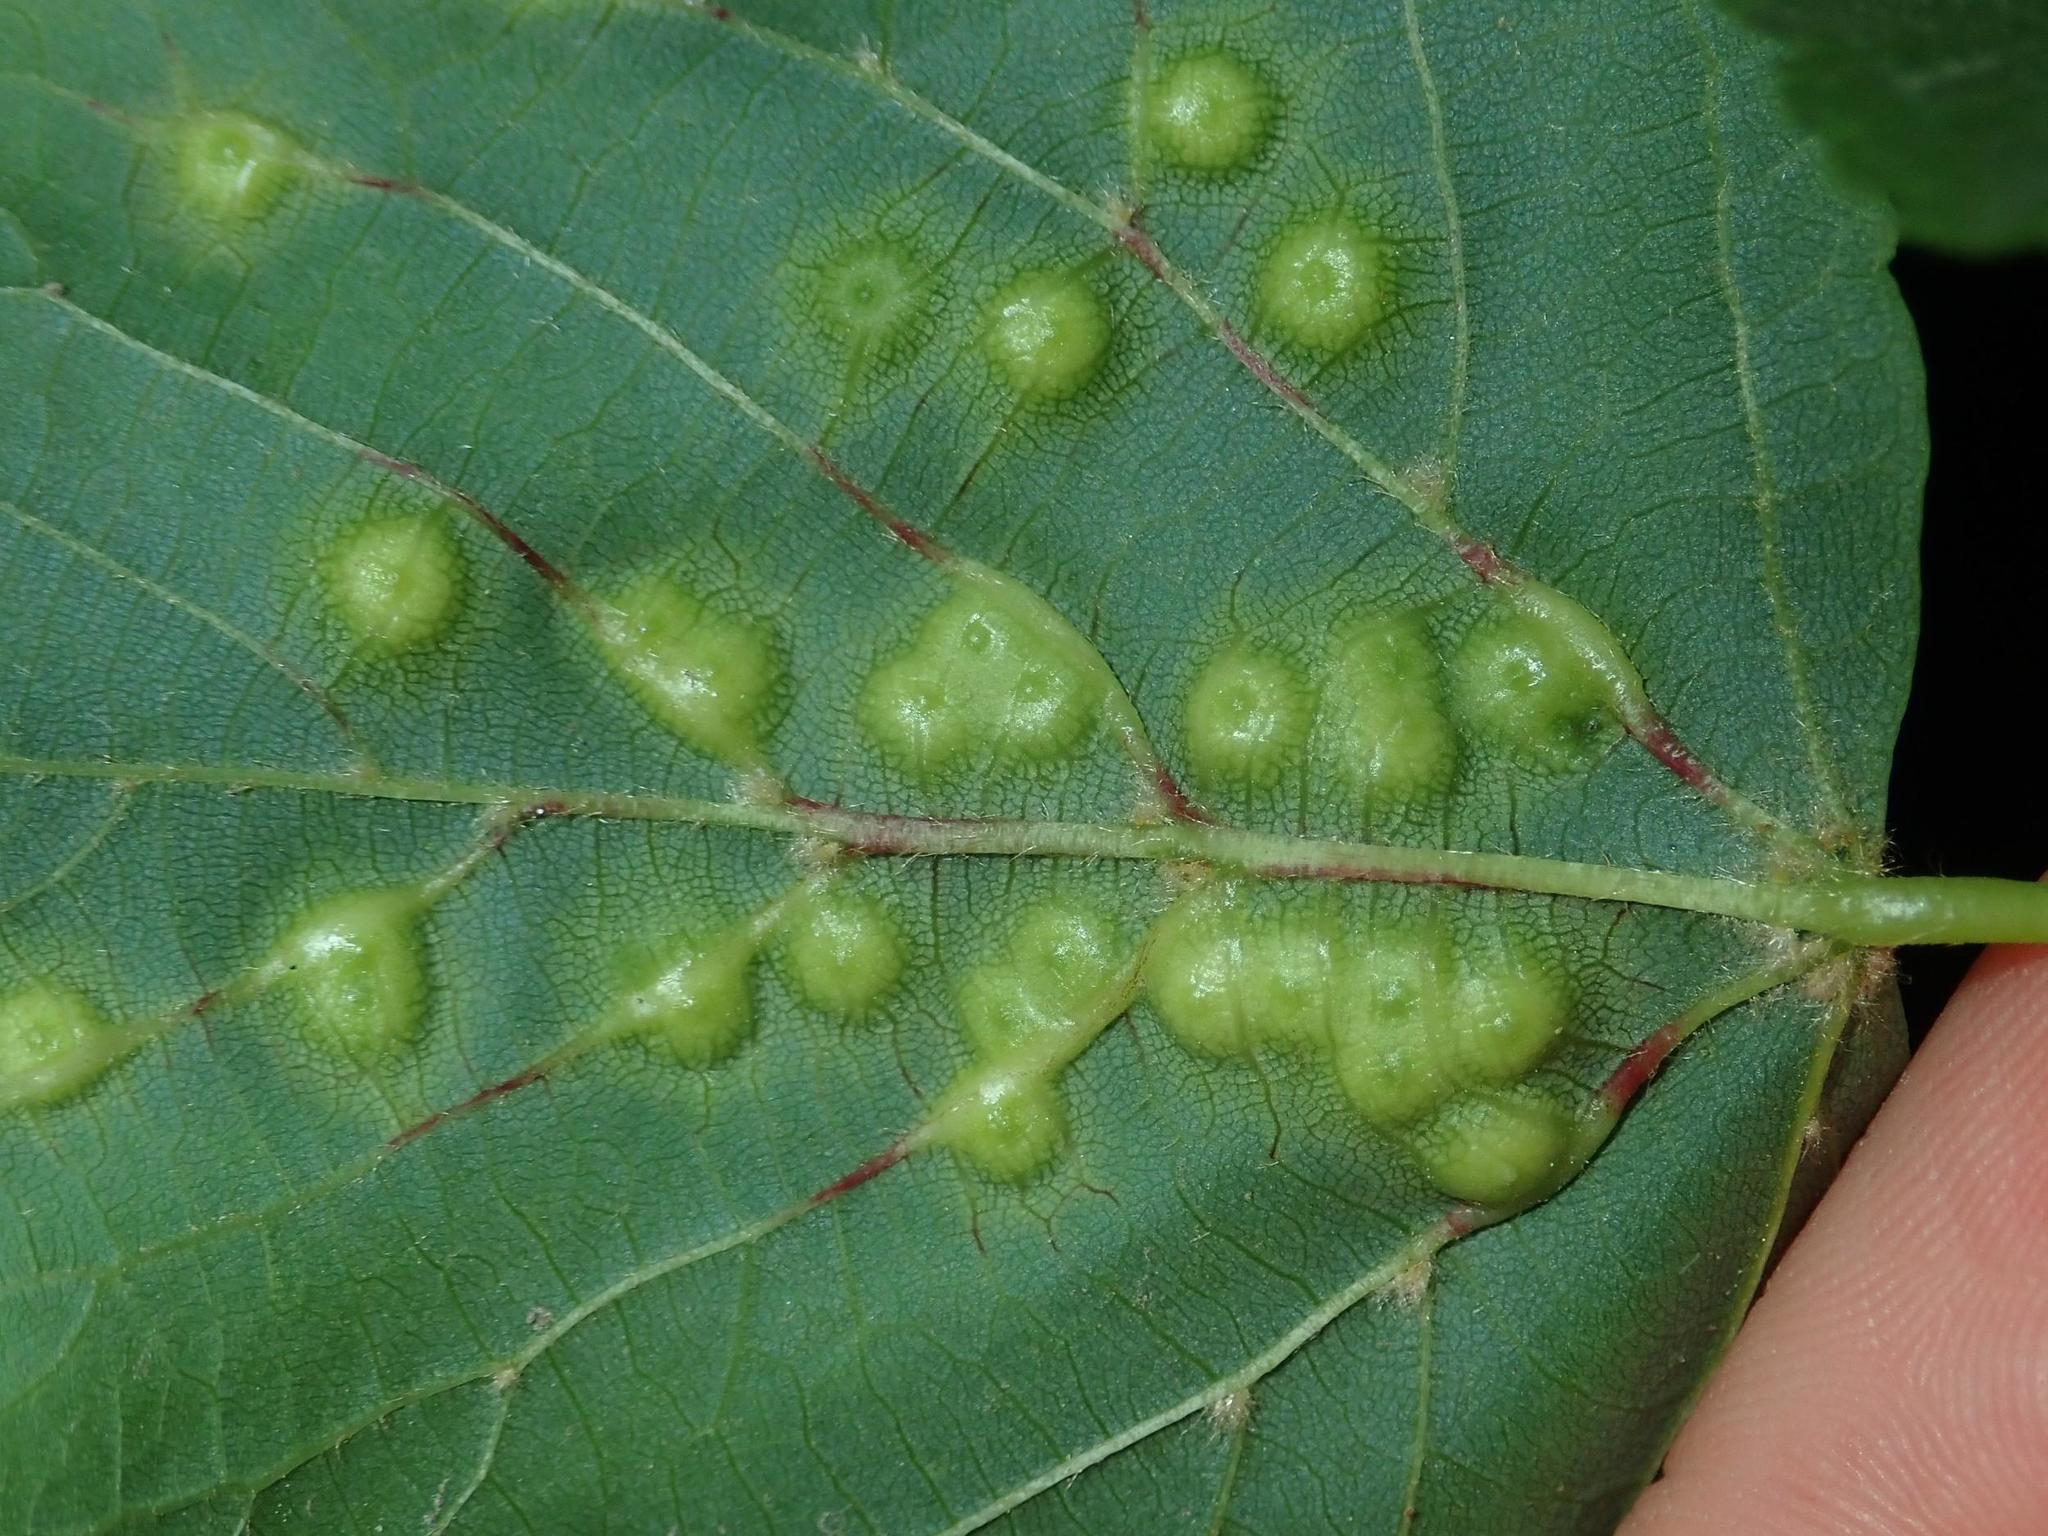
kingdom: Animalia
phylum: Arthropoda
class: Insecta
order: Diptera
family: Cecidomyiidae
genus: Didymomyia
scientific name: Didymomyia tiliacea
